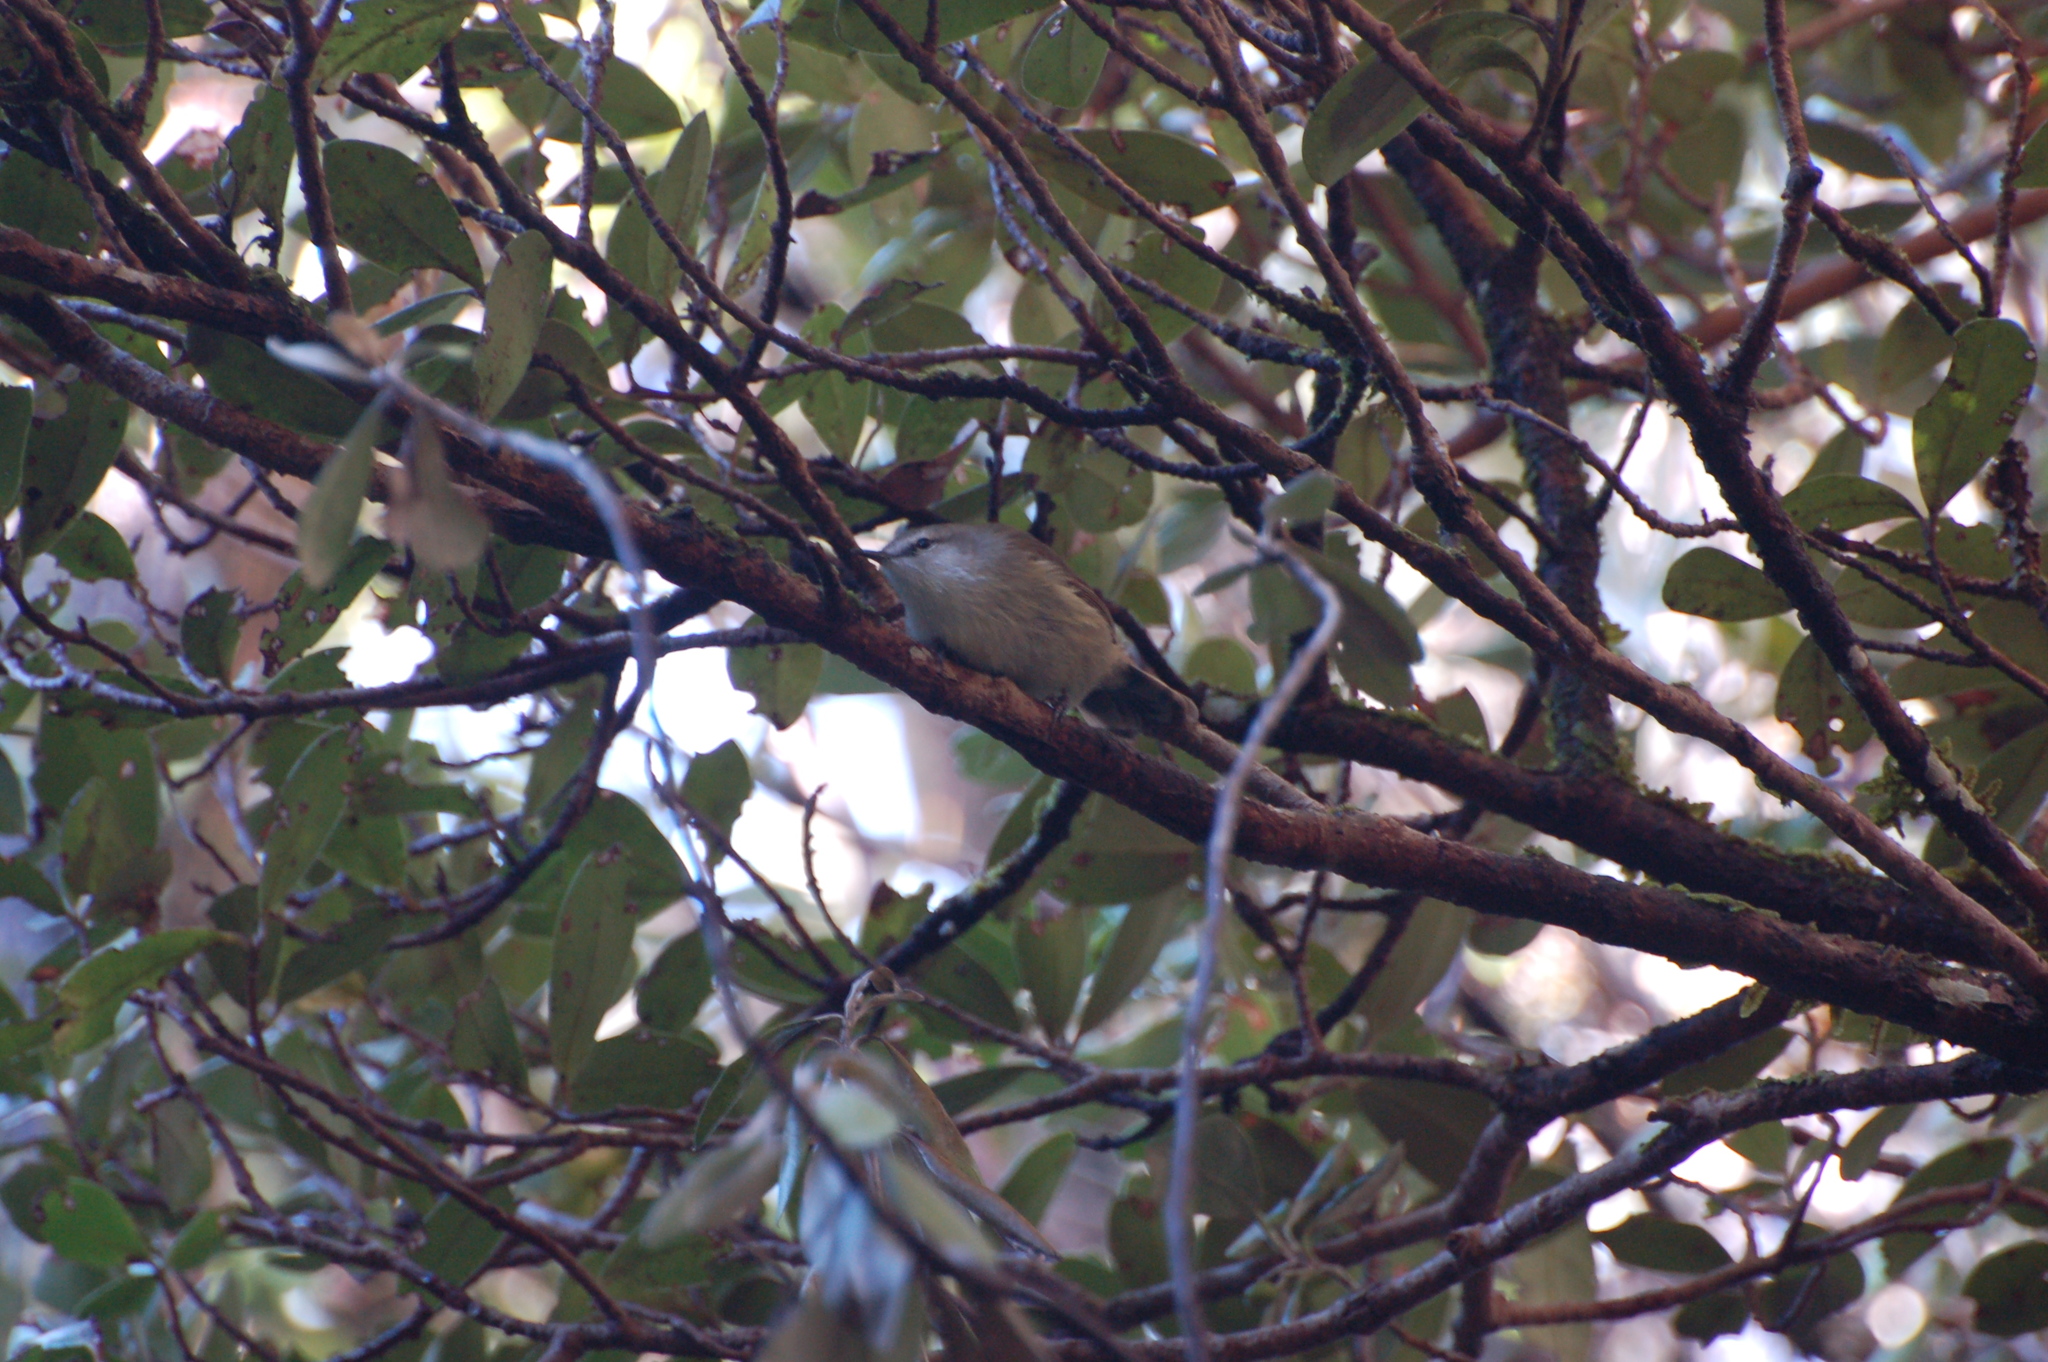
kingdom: Animalia
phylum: Chordata
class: Aves
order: Passeriformes
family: Acanthizidae
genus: Gerygone
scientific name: Gerygone albofrontata
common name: Chatham gerygone
